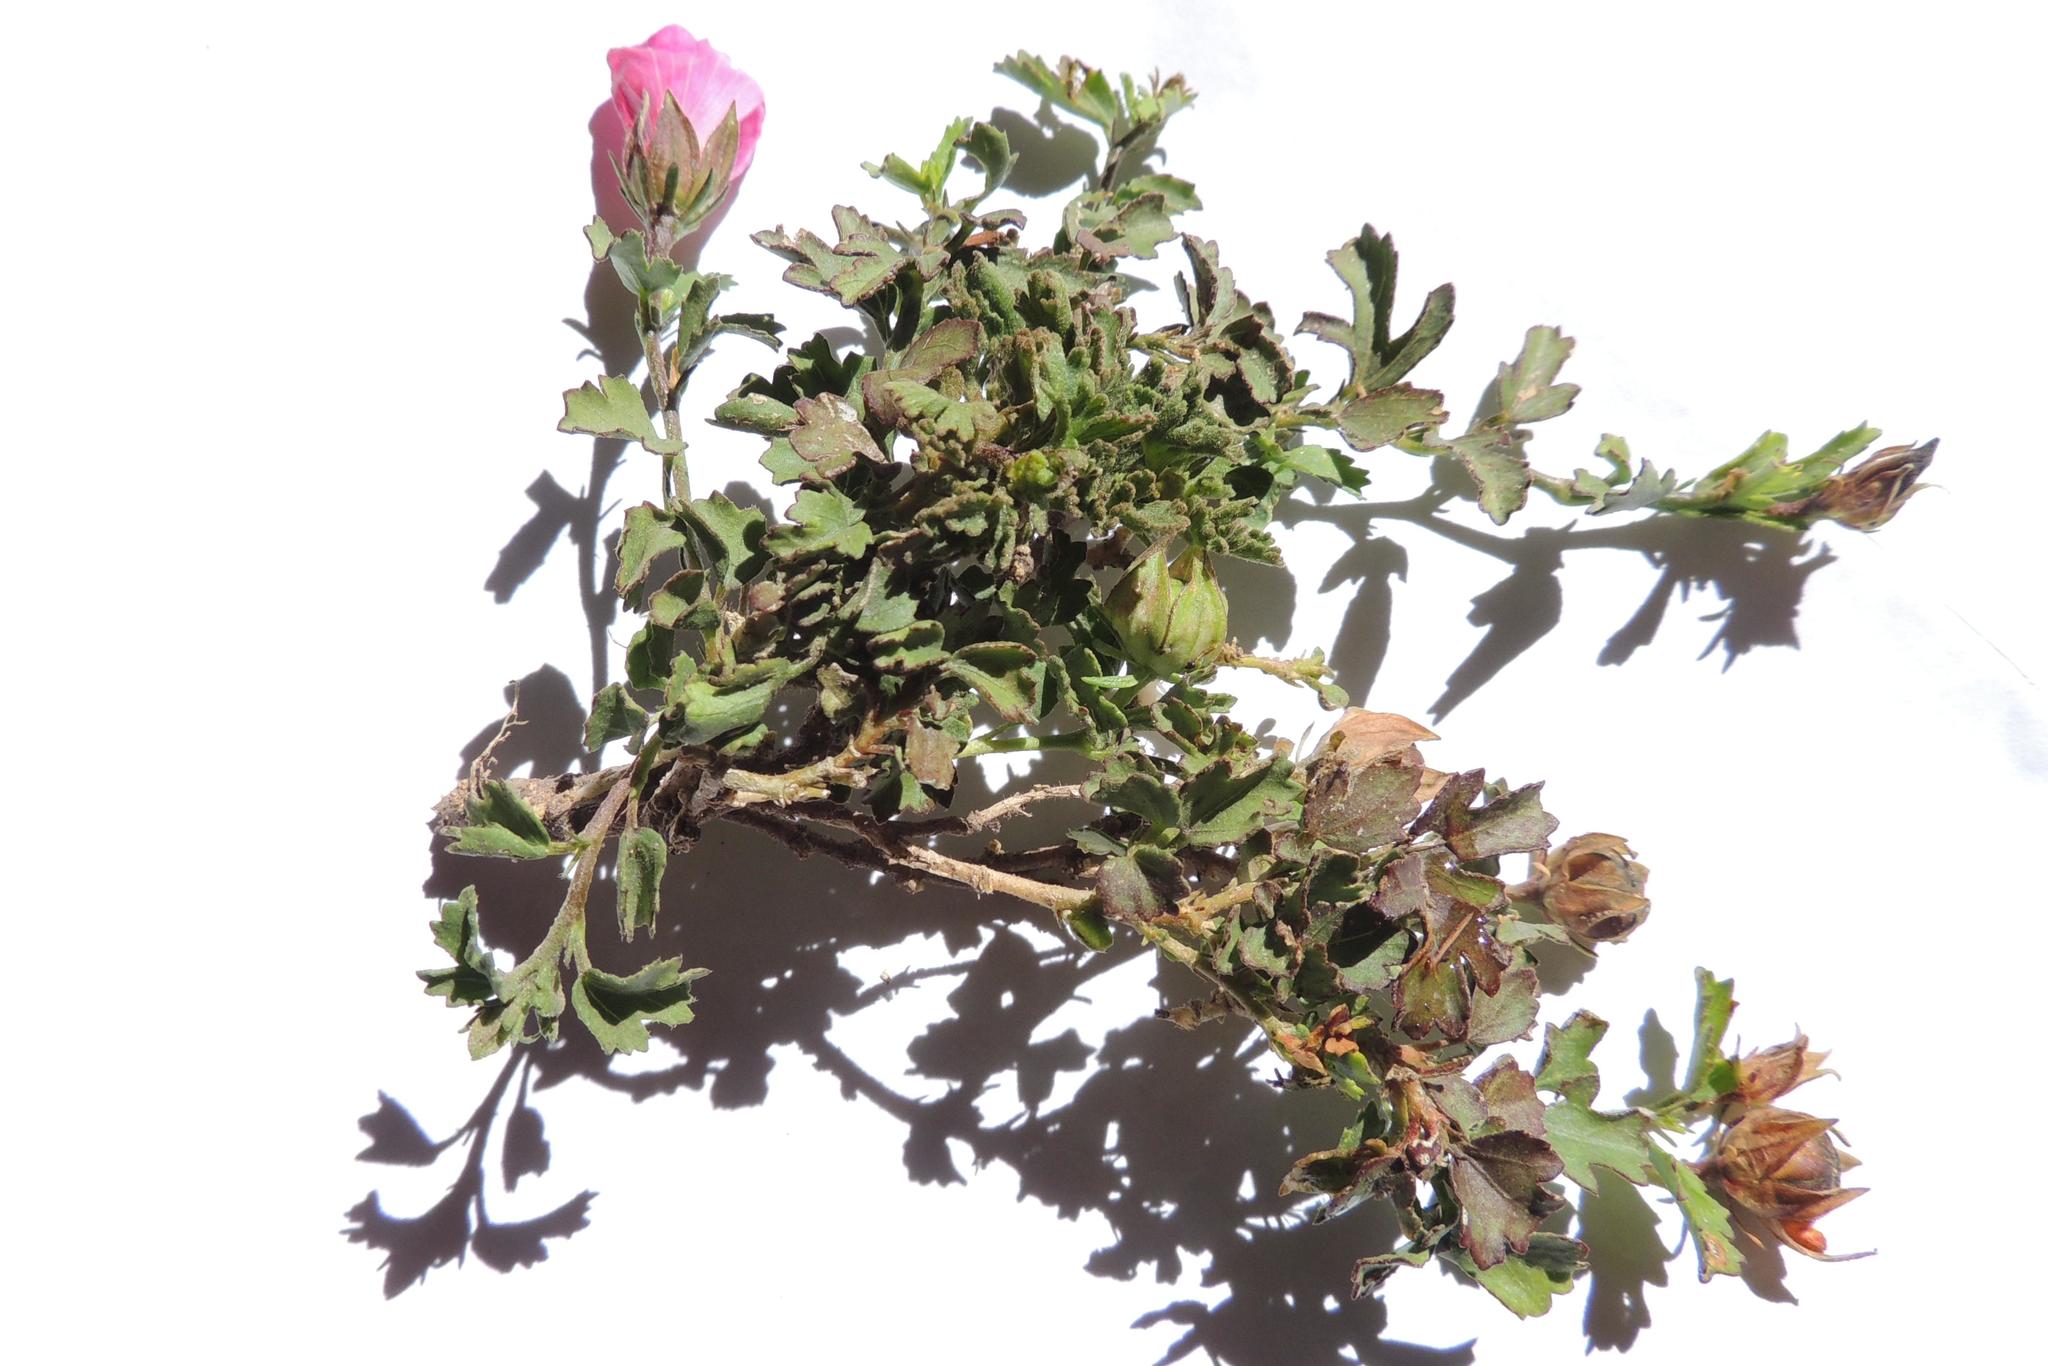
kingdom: Plantae
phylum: Tracheophyta
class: Magnoliopsida
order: Malvales
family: Malvaceae
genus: Hibiscus
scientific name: Hibiscus pusillus
